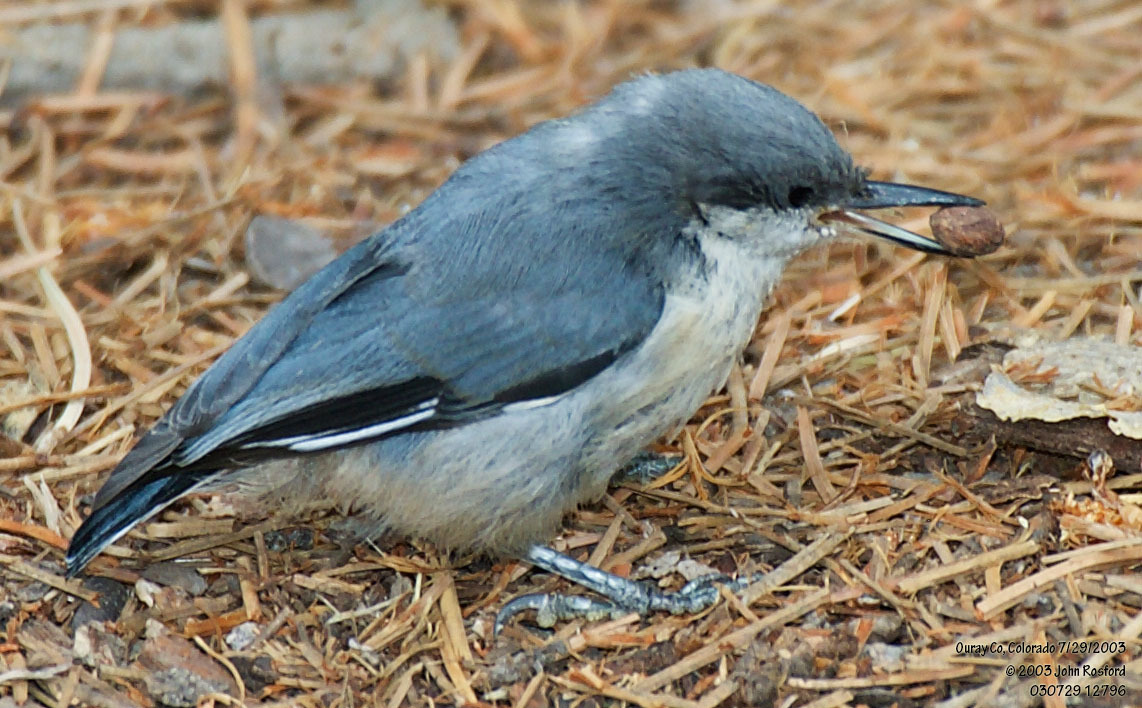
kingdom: Animalia
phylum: Chordata
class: Aves
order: Passeriformes
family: Sittidae
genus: Sitta
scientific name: Sitta pygmaea
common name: Pygmy nuthatch
